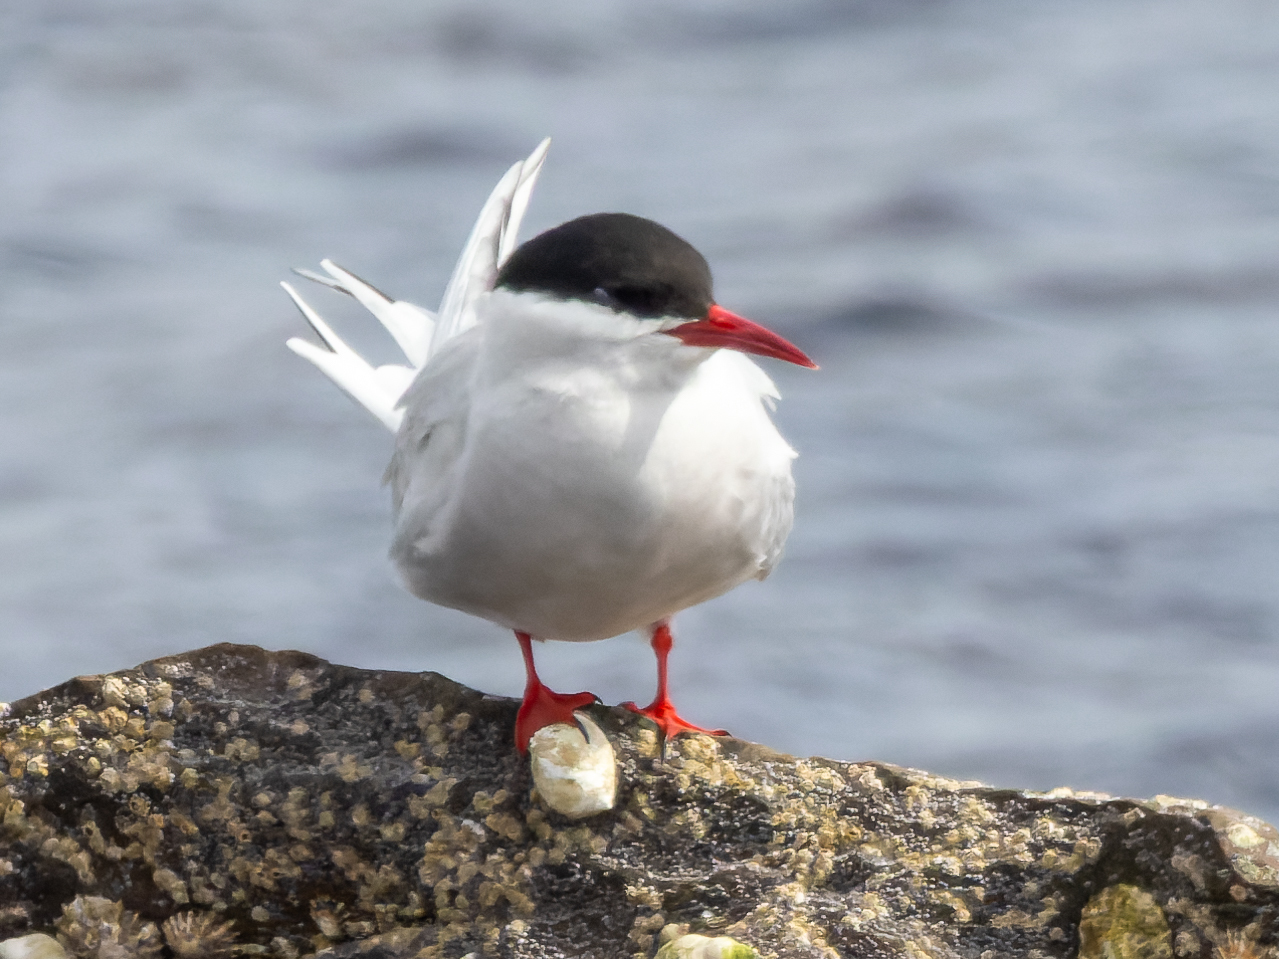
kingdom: Animalia
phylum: Chordata
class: Aves
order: Charadriiformes
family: Laridae
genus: Sterna
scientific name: Sterna paradisaea
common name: Arctic tern
